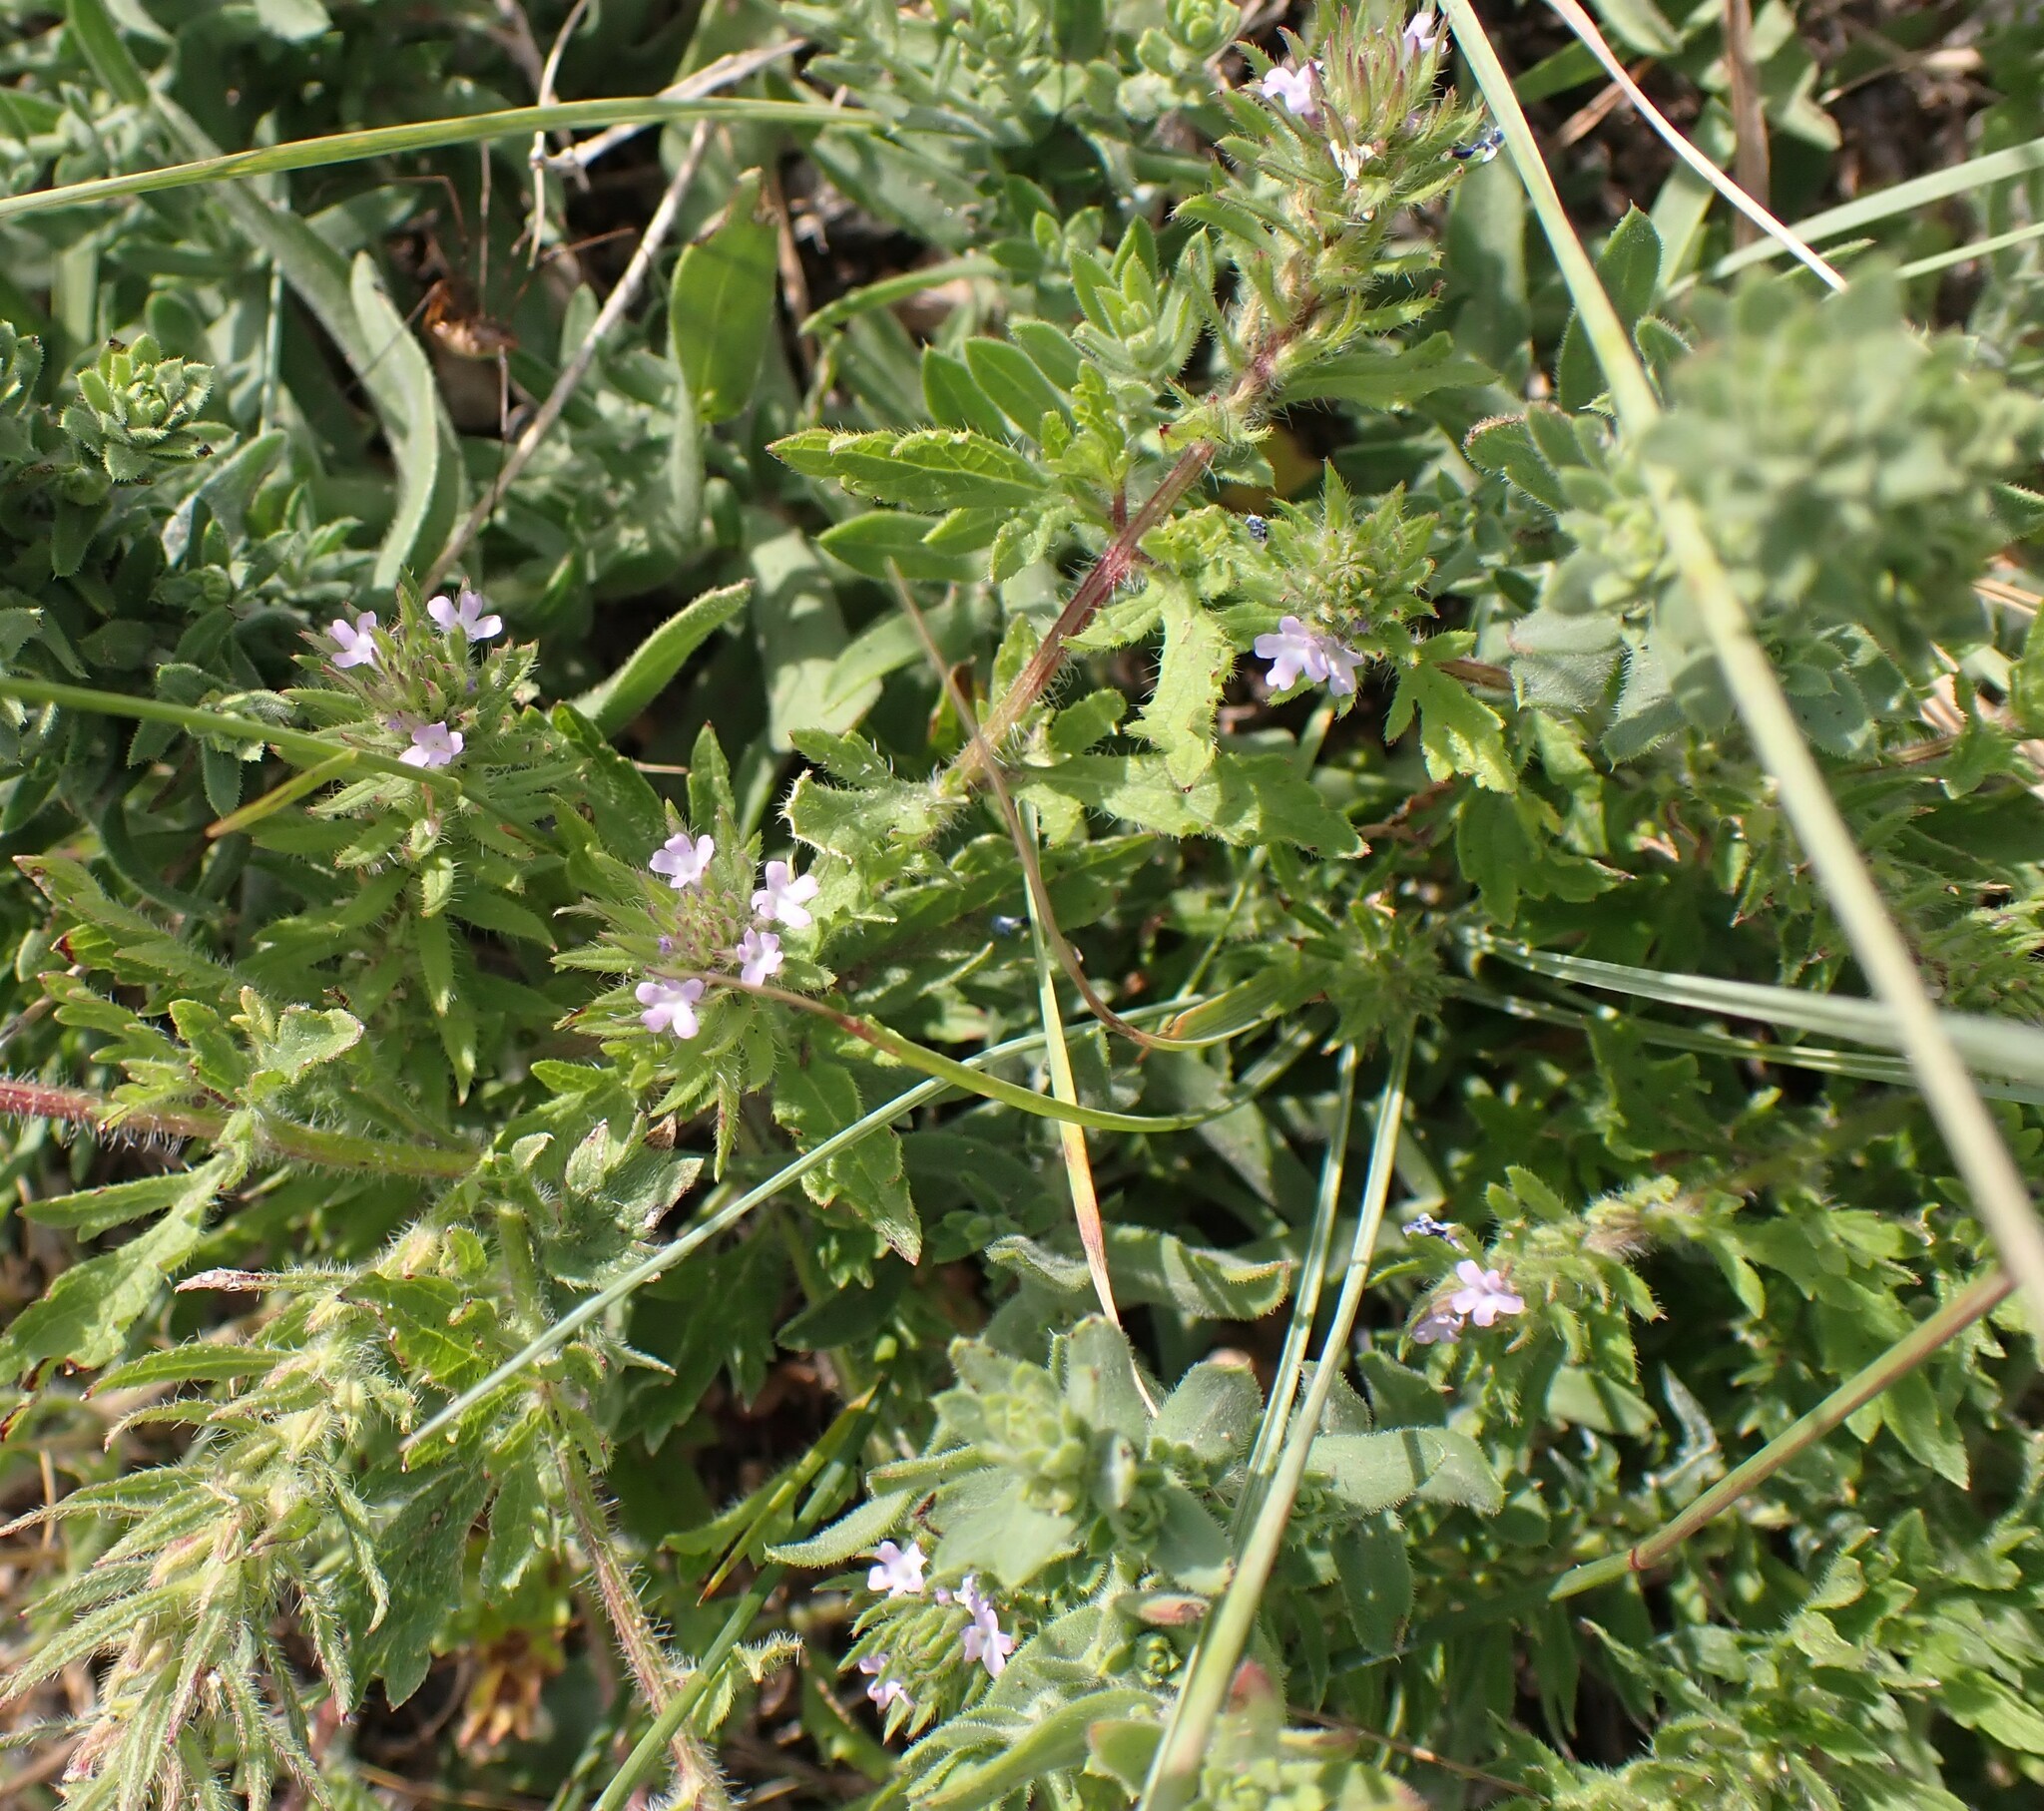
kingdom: Plantae
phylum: Tracheophyta
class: Magnoliopsida
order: Lamiales
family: Verbenaceae
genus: Verbena
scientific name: Verbena bracteata
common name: Bracted vervain
